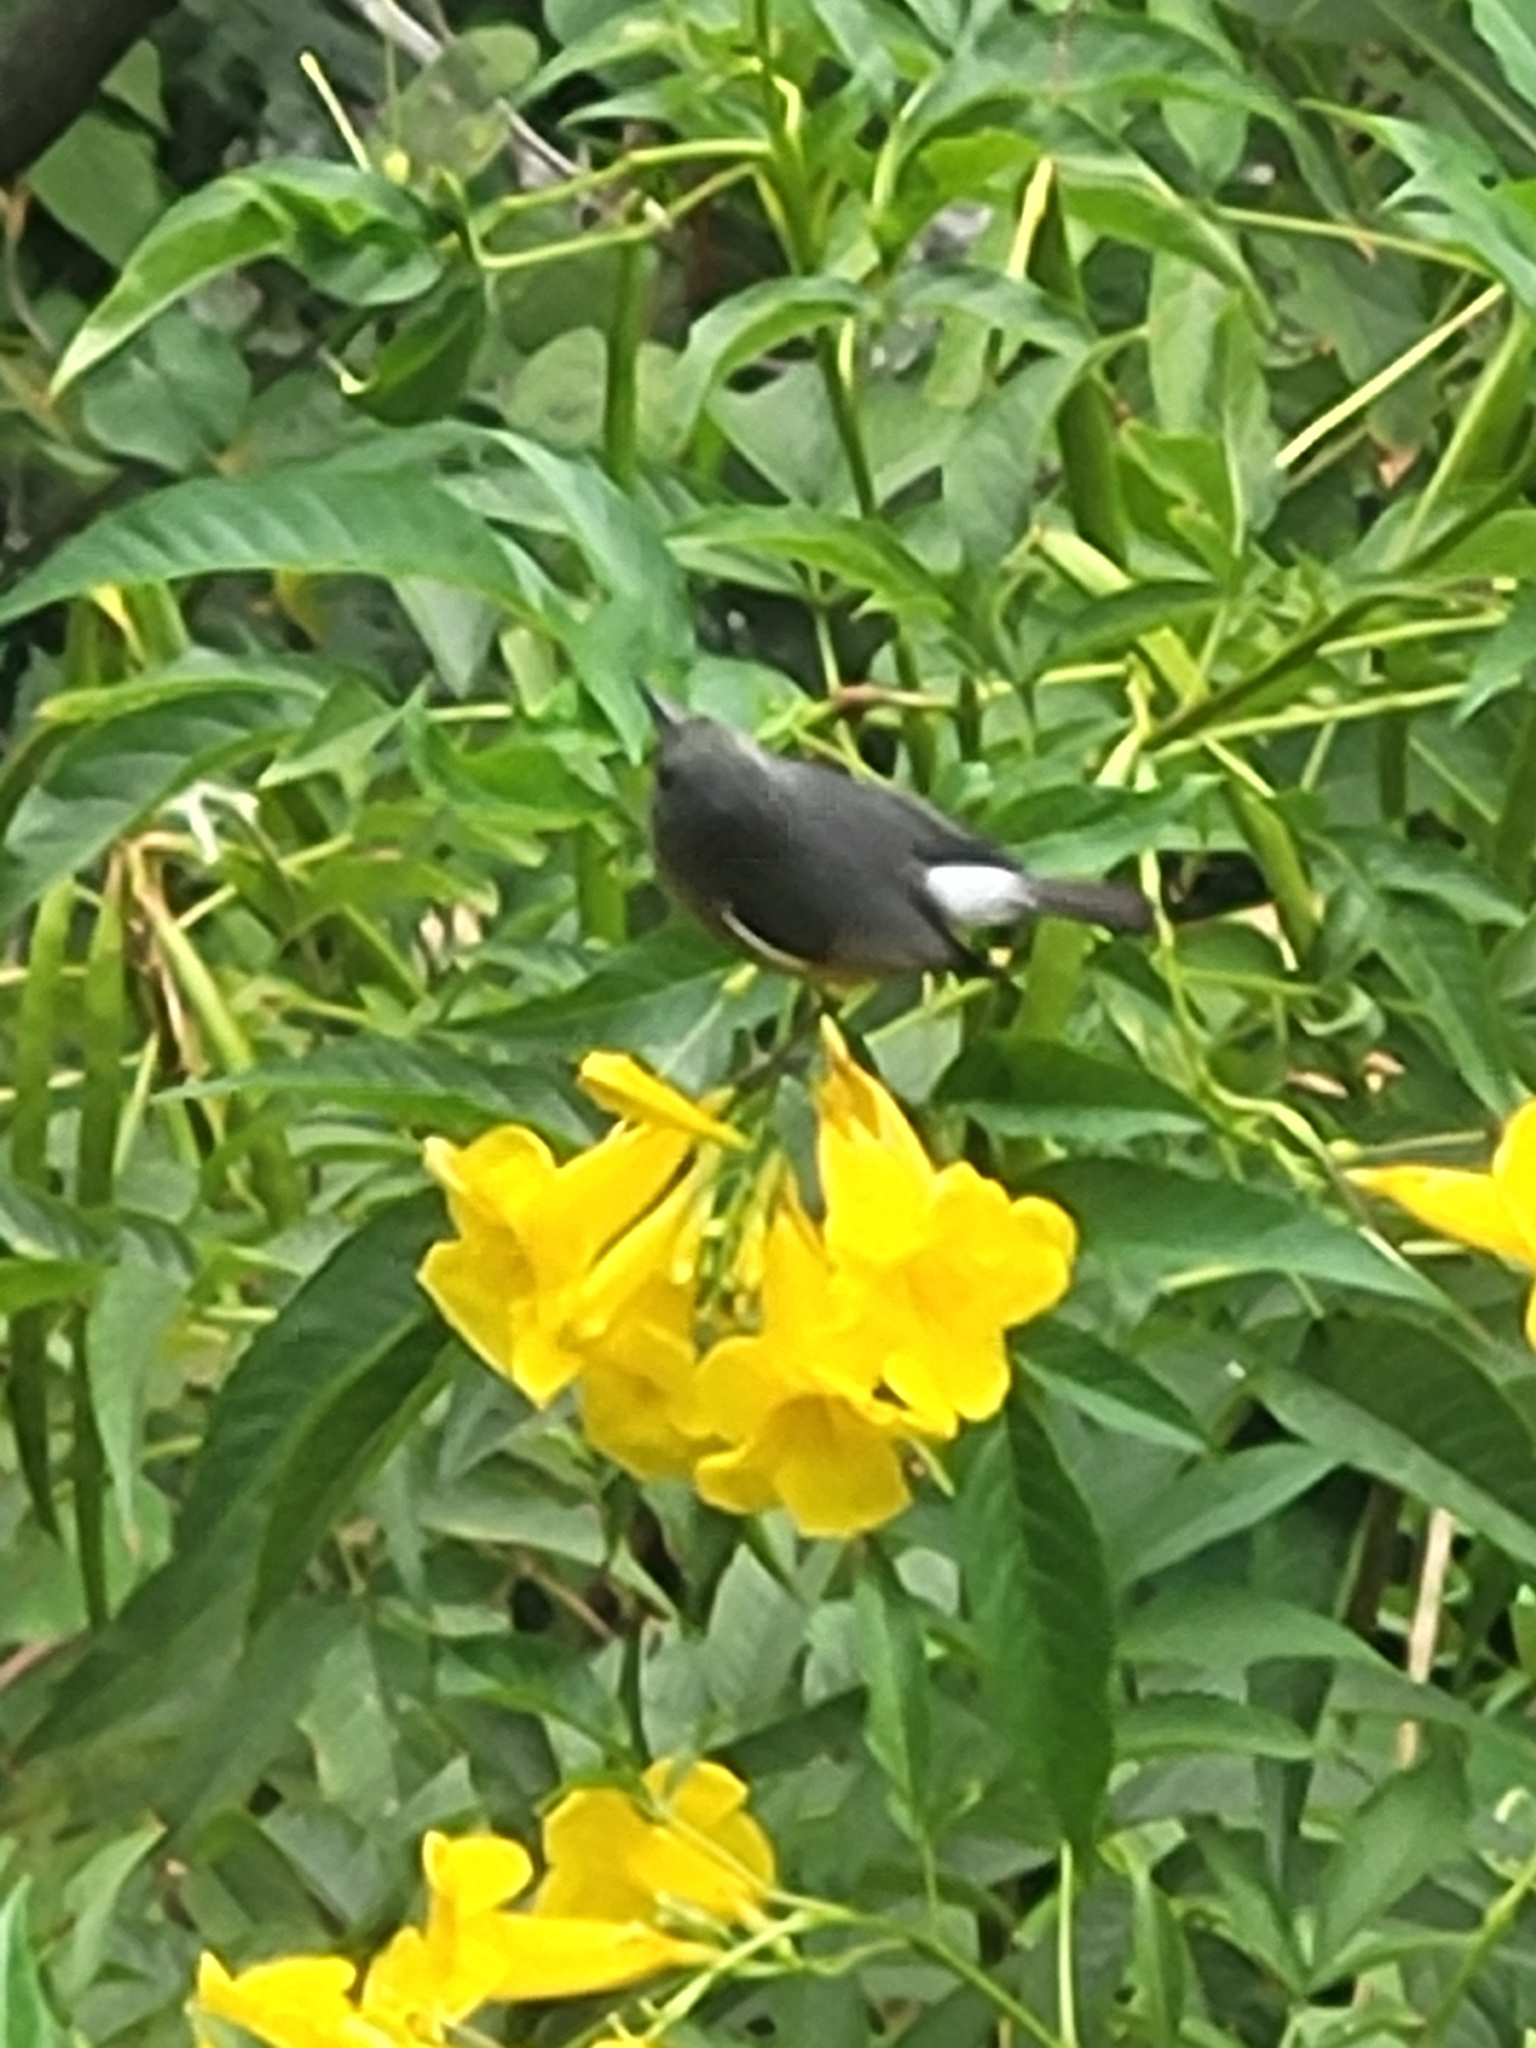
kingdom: Animalia
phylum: Chordata
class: Aves
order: Passeriformes
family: Zosteropidae
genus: Zosterops
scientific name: Zosterops borbonicus
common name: Reunion grey white-eye
